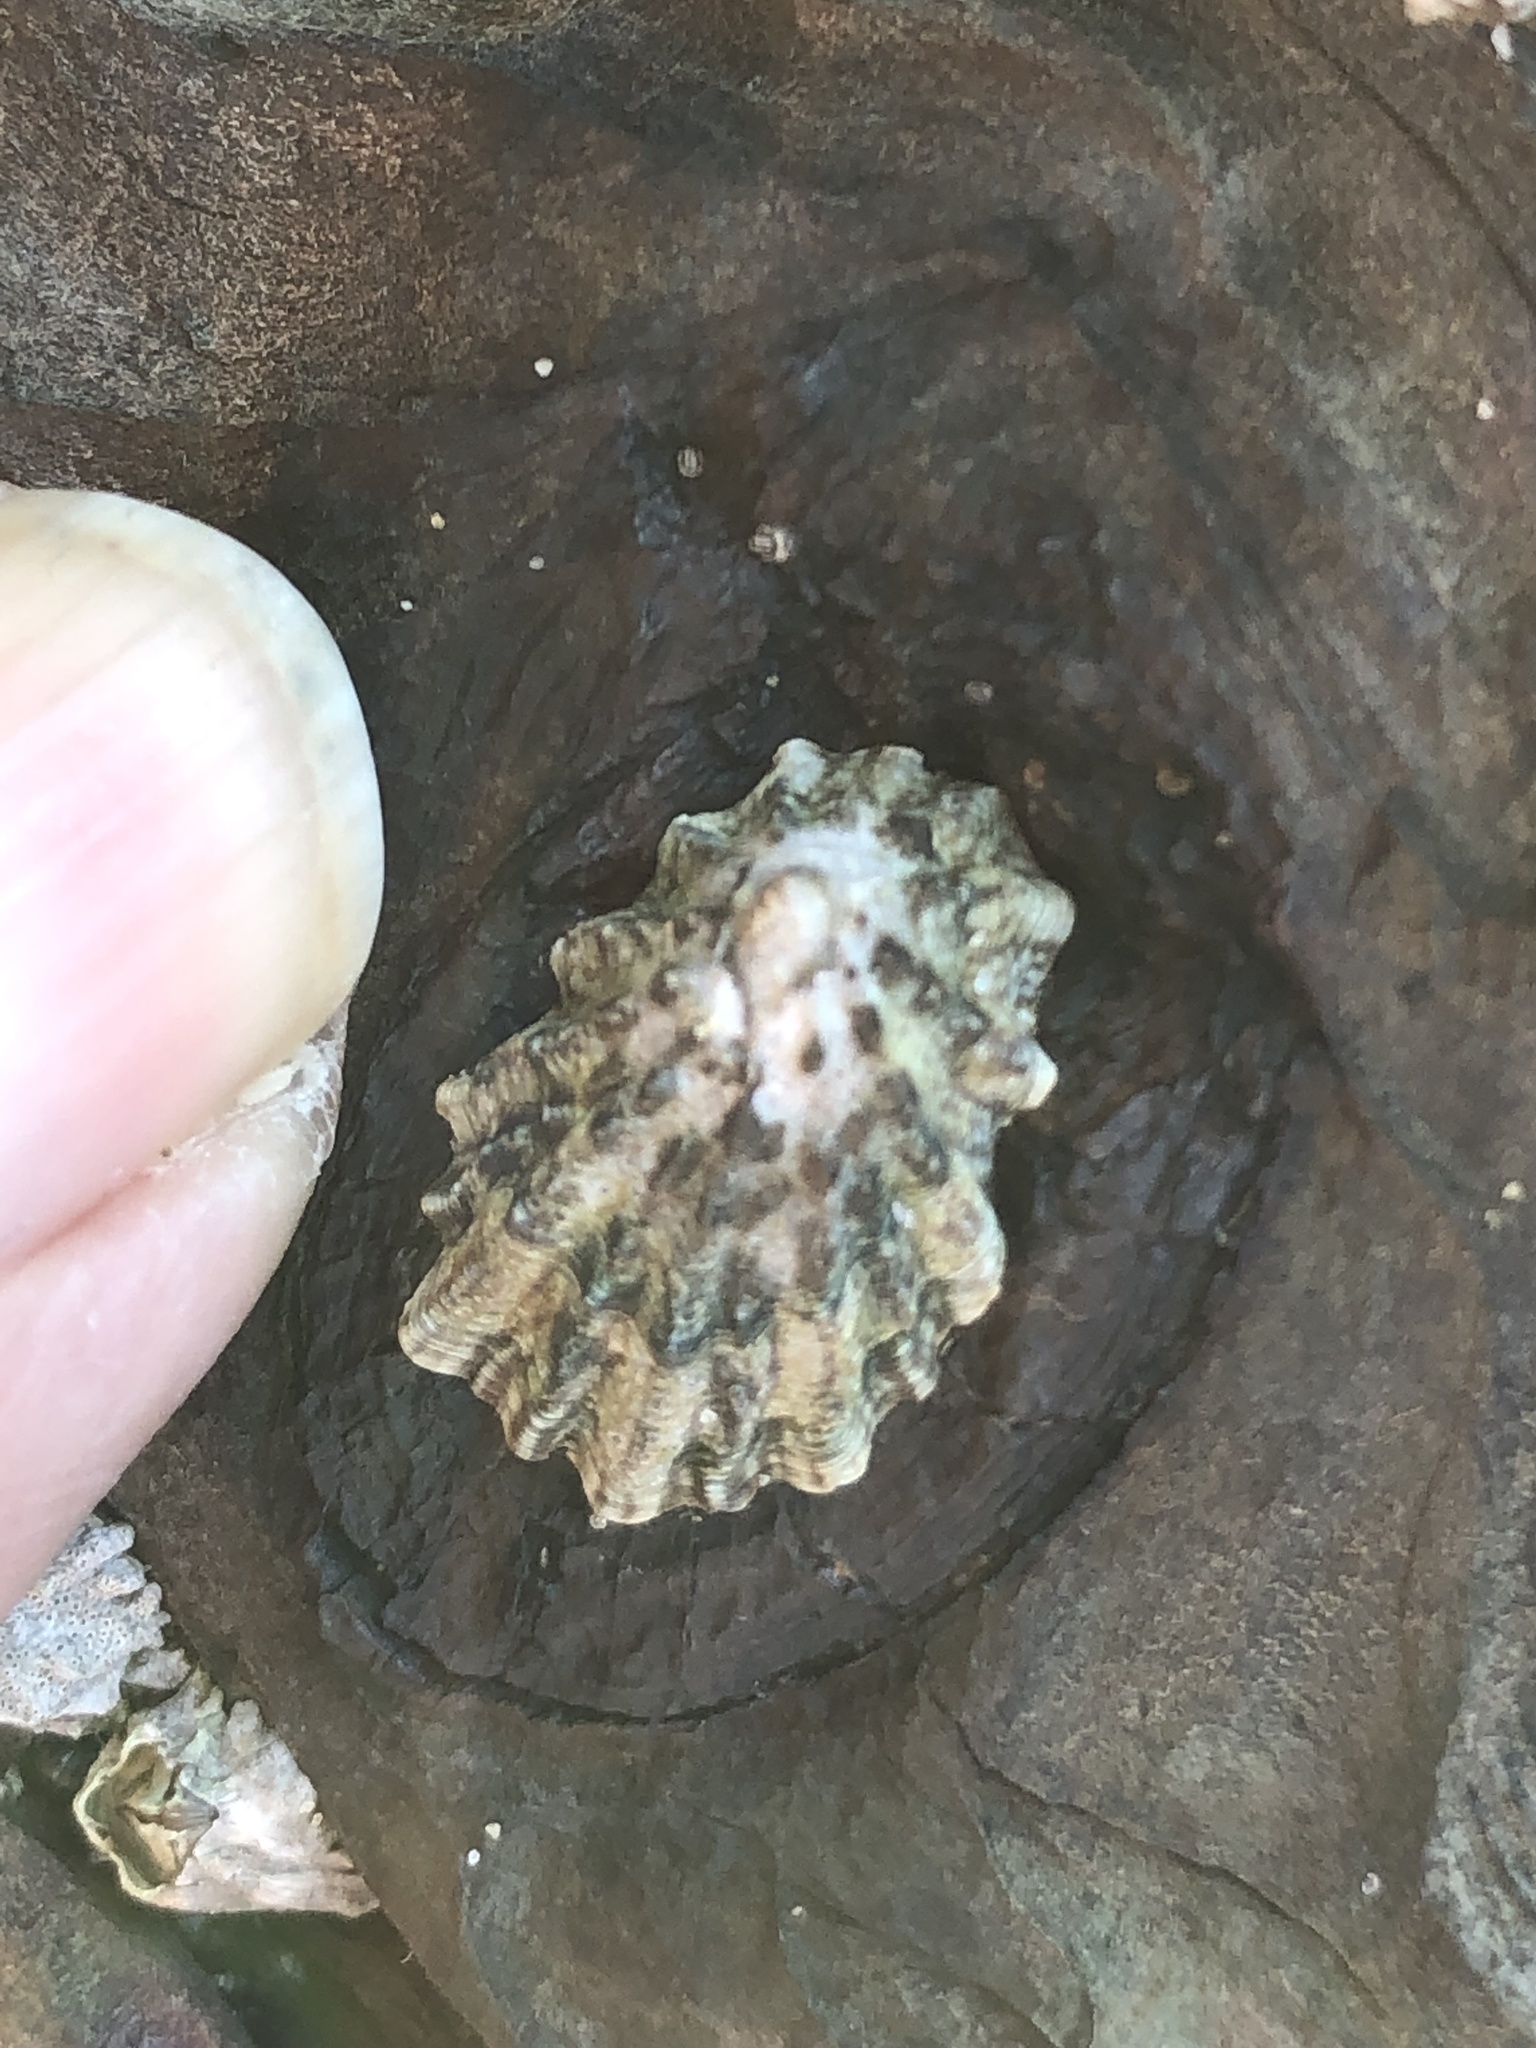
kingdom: Animalia
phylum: Mollusca
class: Gastropoda
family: Lottiidae
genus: Lottia
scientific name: Lottia scabra
